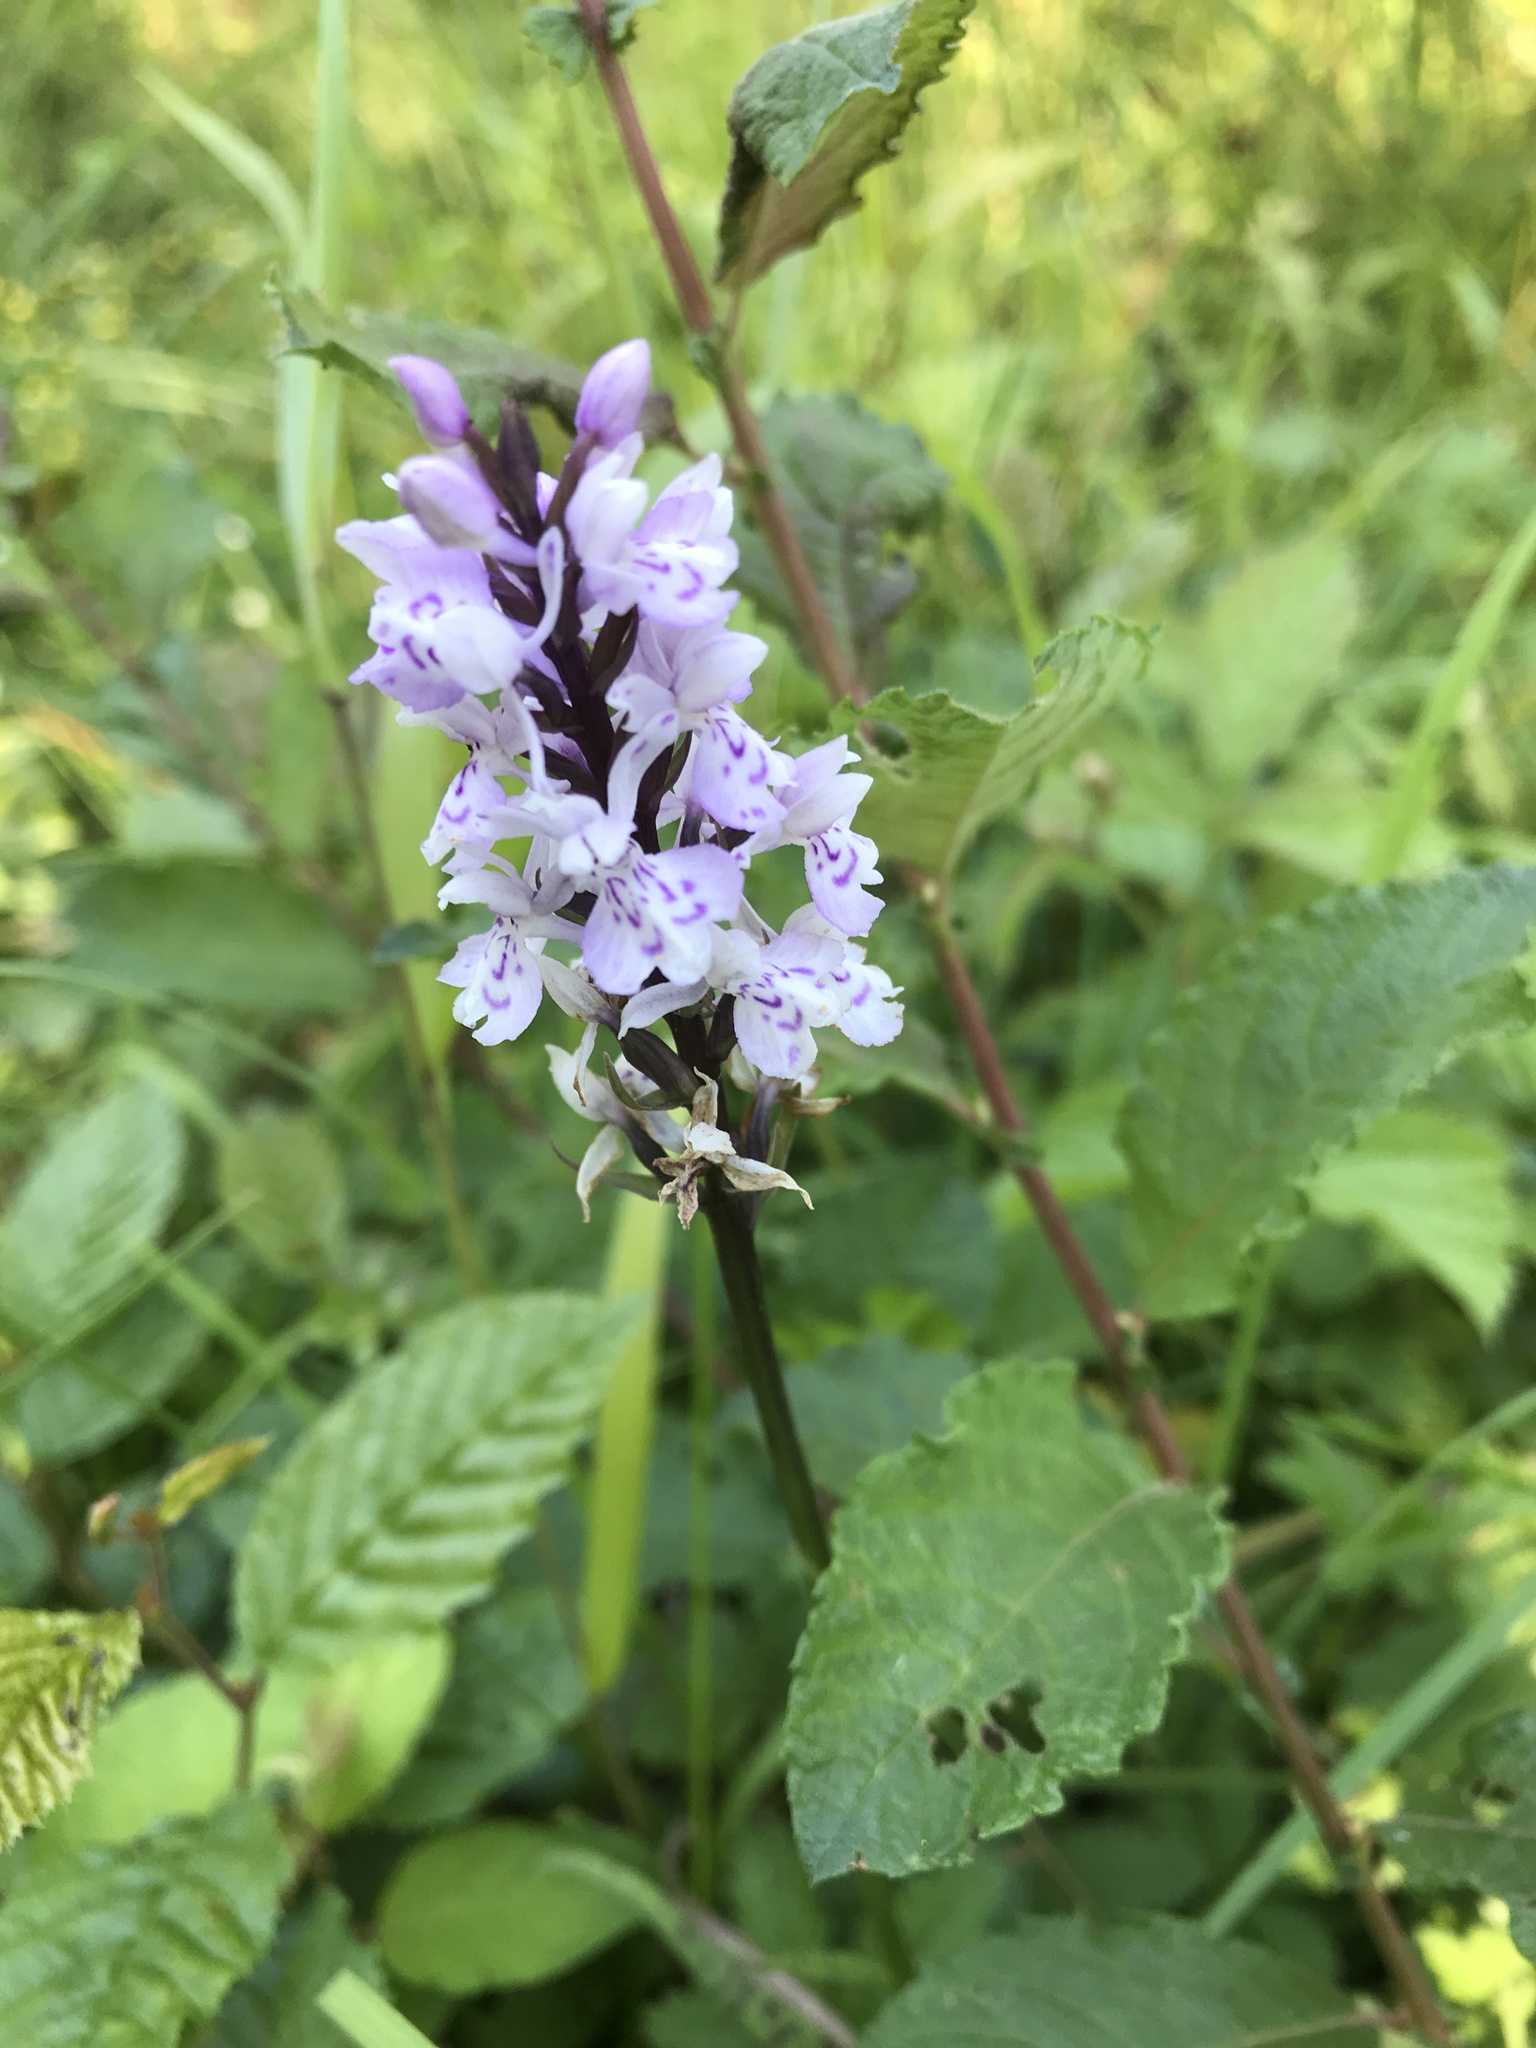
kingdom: Plantae
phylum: Tracheophyta
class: Liliopsida
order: Asparagales
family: Orchidaceae
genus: Dactylorhiza
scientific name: Dactylorhiza maculata
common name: Heath spotted-orchid
